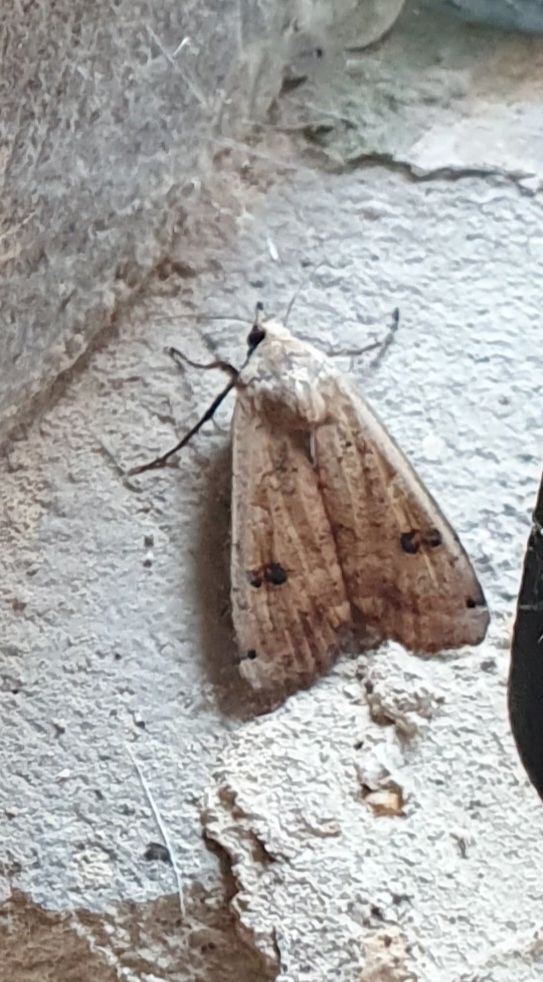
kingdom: Animalia
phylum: Arthropoda
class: Insecta
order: Lepidoptera
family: Noctuidae
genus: Noctua
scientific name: Noctua pronuba
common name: Large yellow underwing
